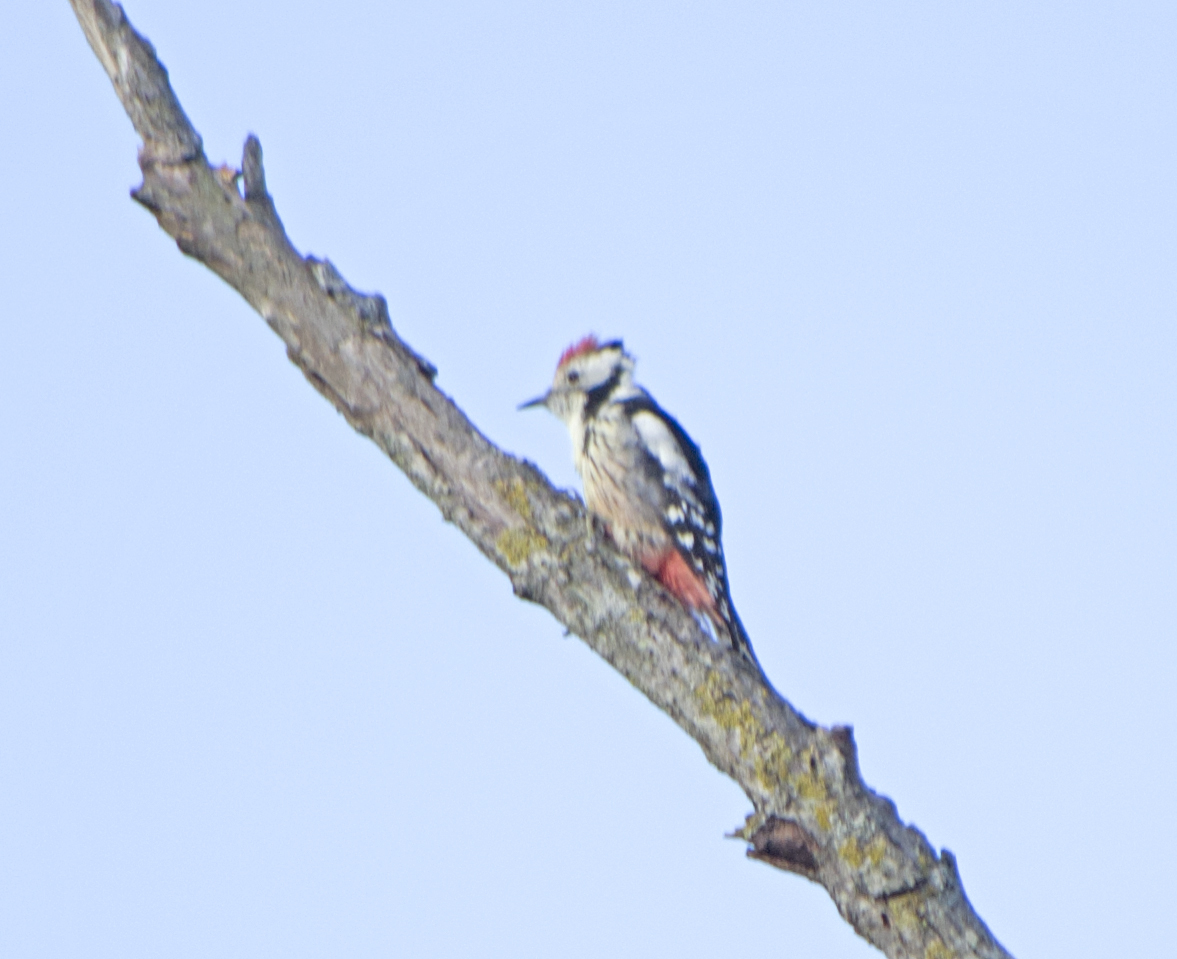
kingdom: Animalia
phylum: Chordata
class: Aves
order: Piciformes
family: Picidae
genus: Dendrocoptes
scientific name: Dendrocoptes medius
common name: Middle spotted woodpecker
